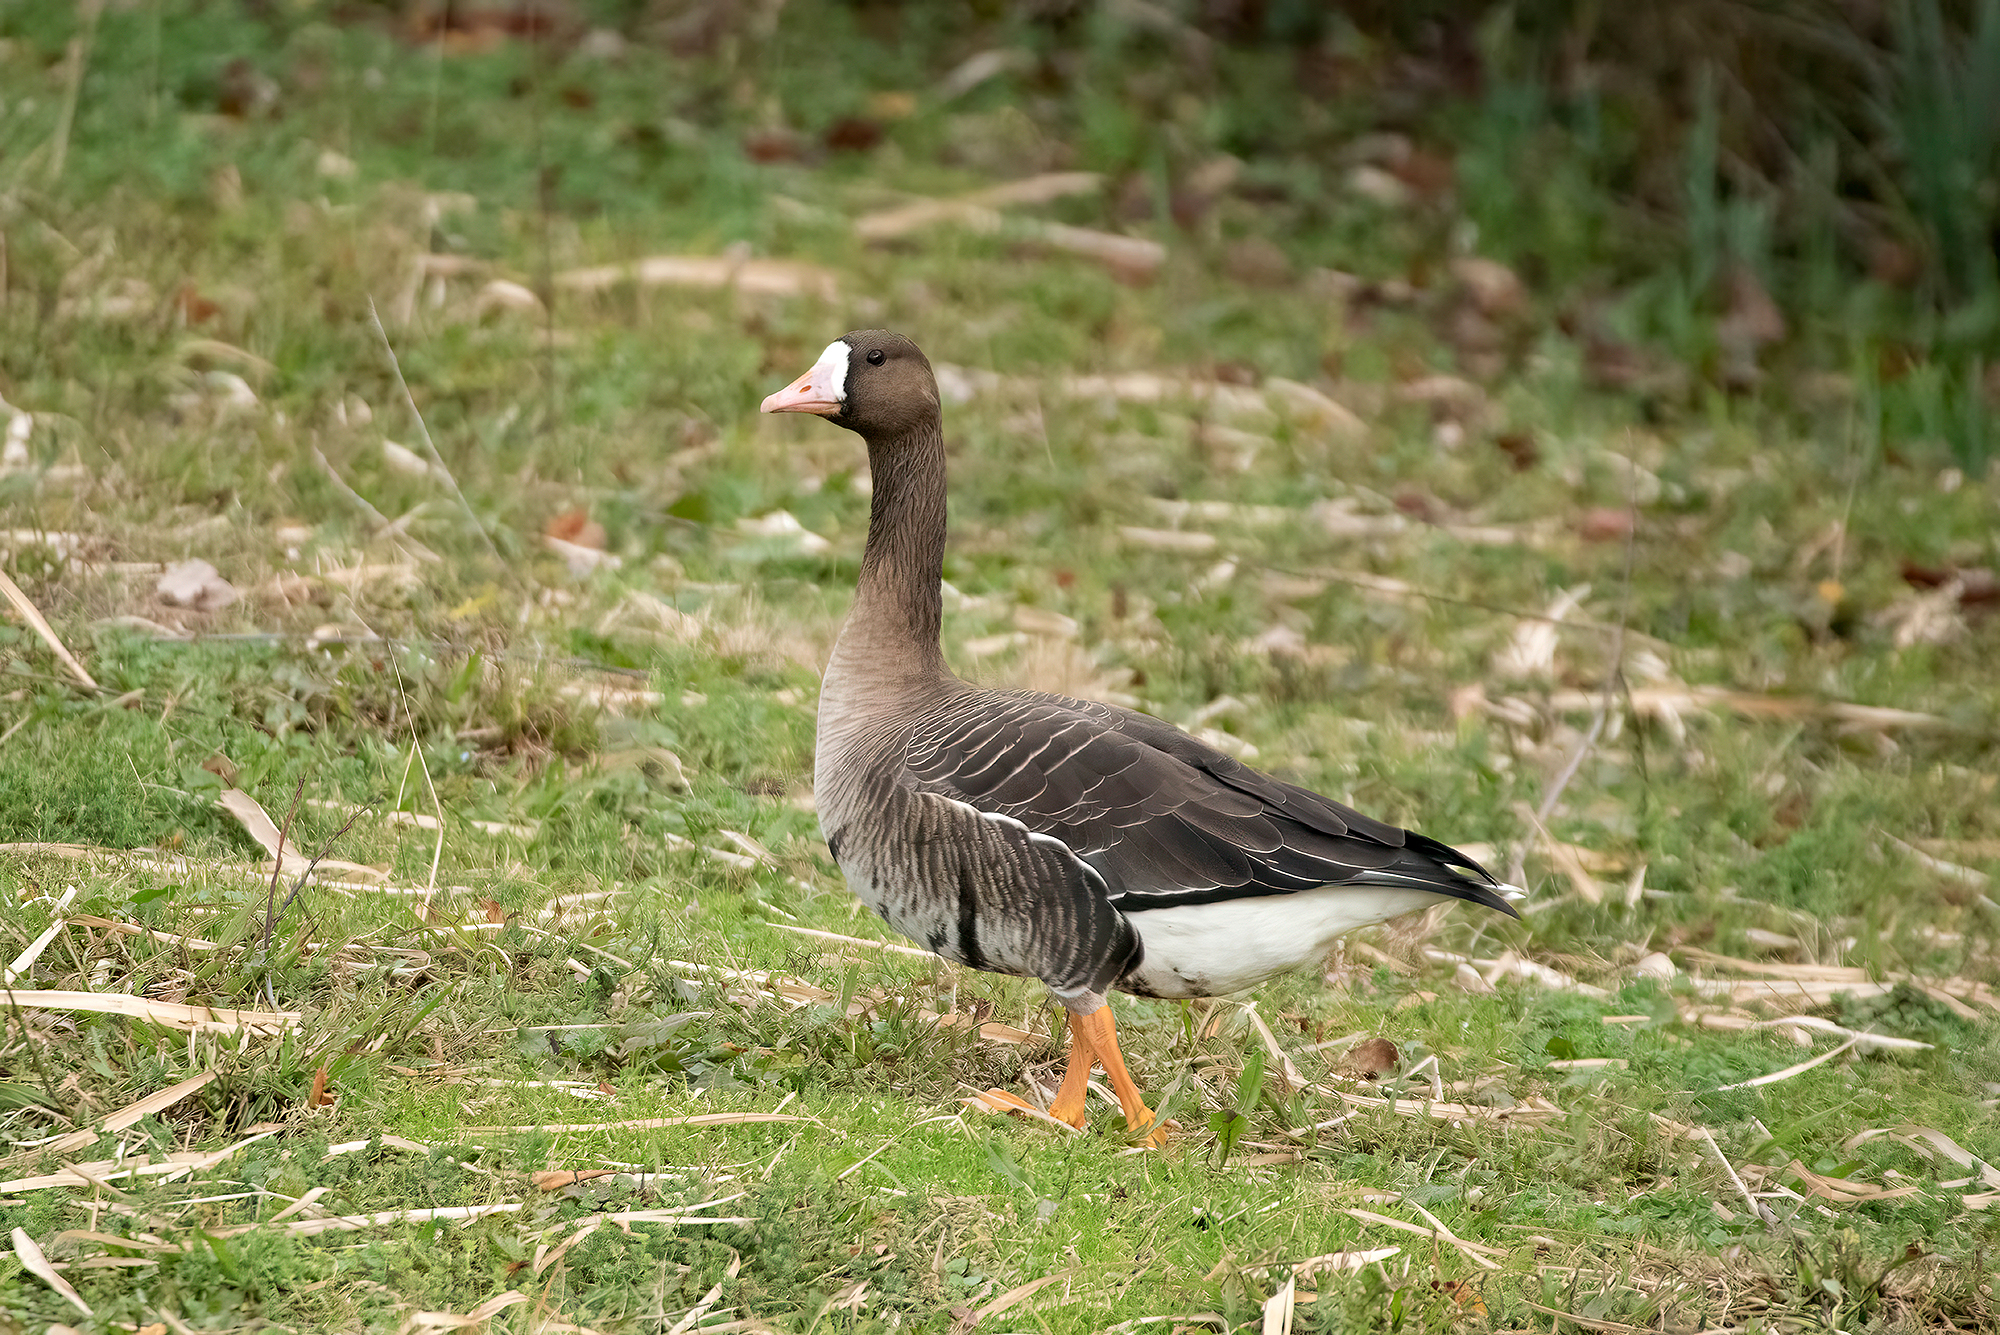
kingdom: Animalia
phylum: Chordata
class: Aves
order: Anseriformes
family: Anatidae
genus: Anser
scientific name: Anser albifrons
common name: Greater white-fronted goose
